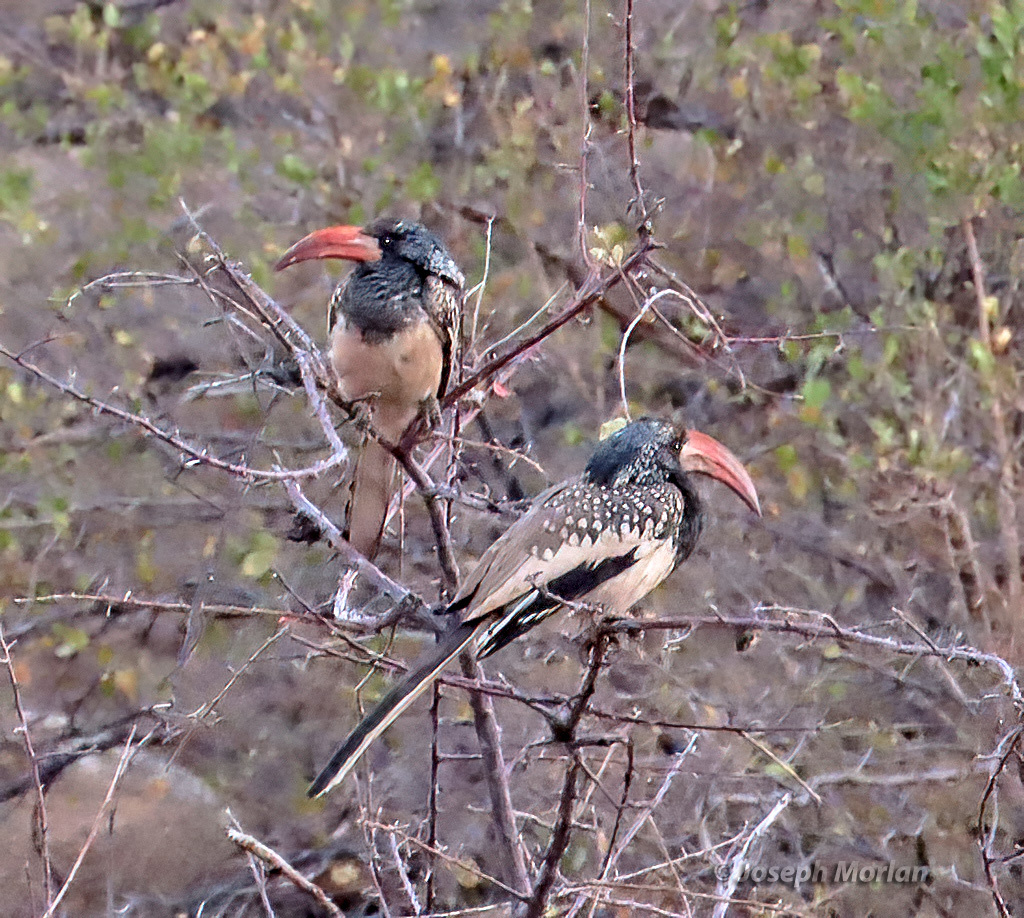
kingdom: Animalia
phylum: Chordata
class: Aves
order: Bucerotiformes
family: Bucerotidae
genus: Tockus
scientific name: Tockus monteiri
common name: Monteiro's hornbill
